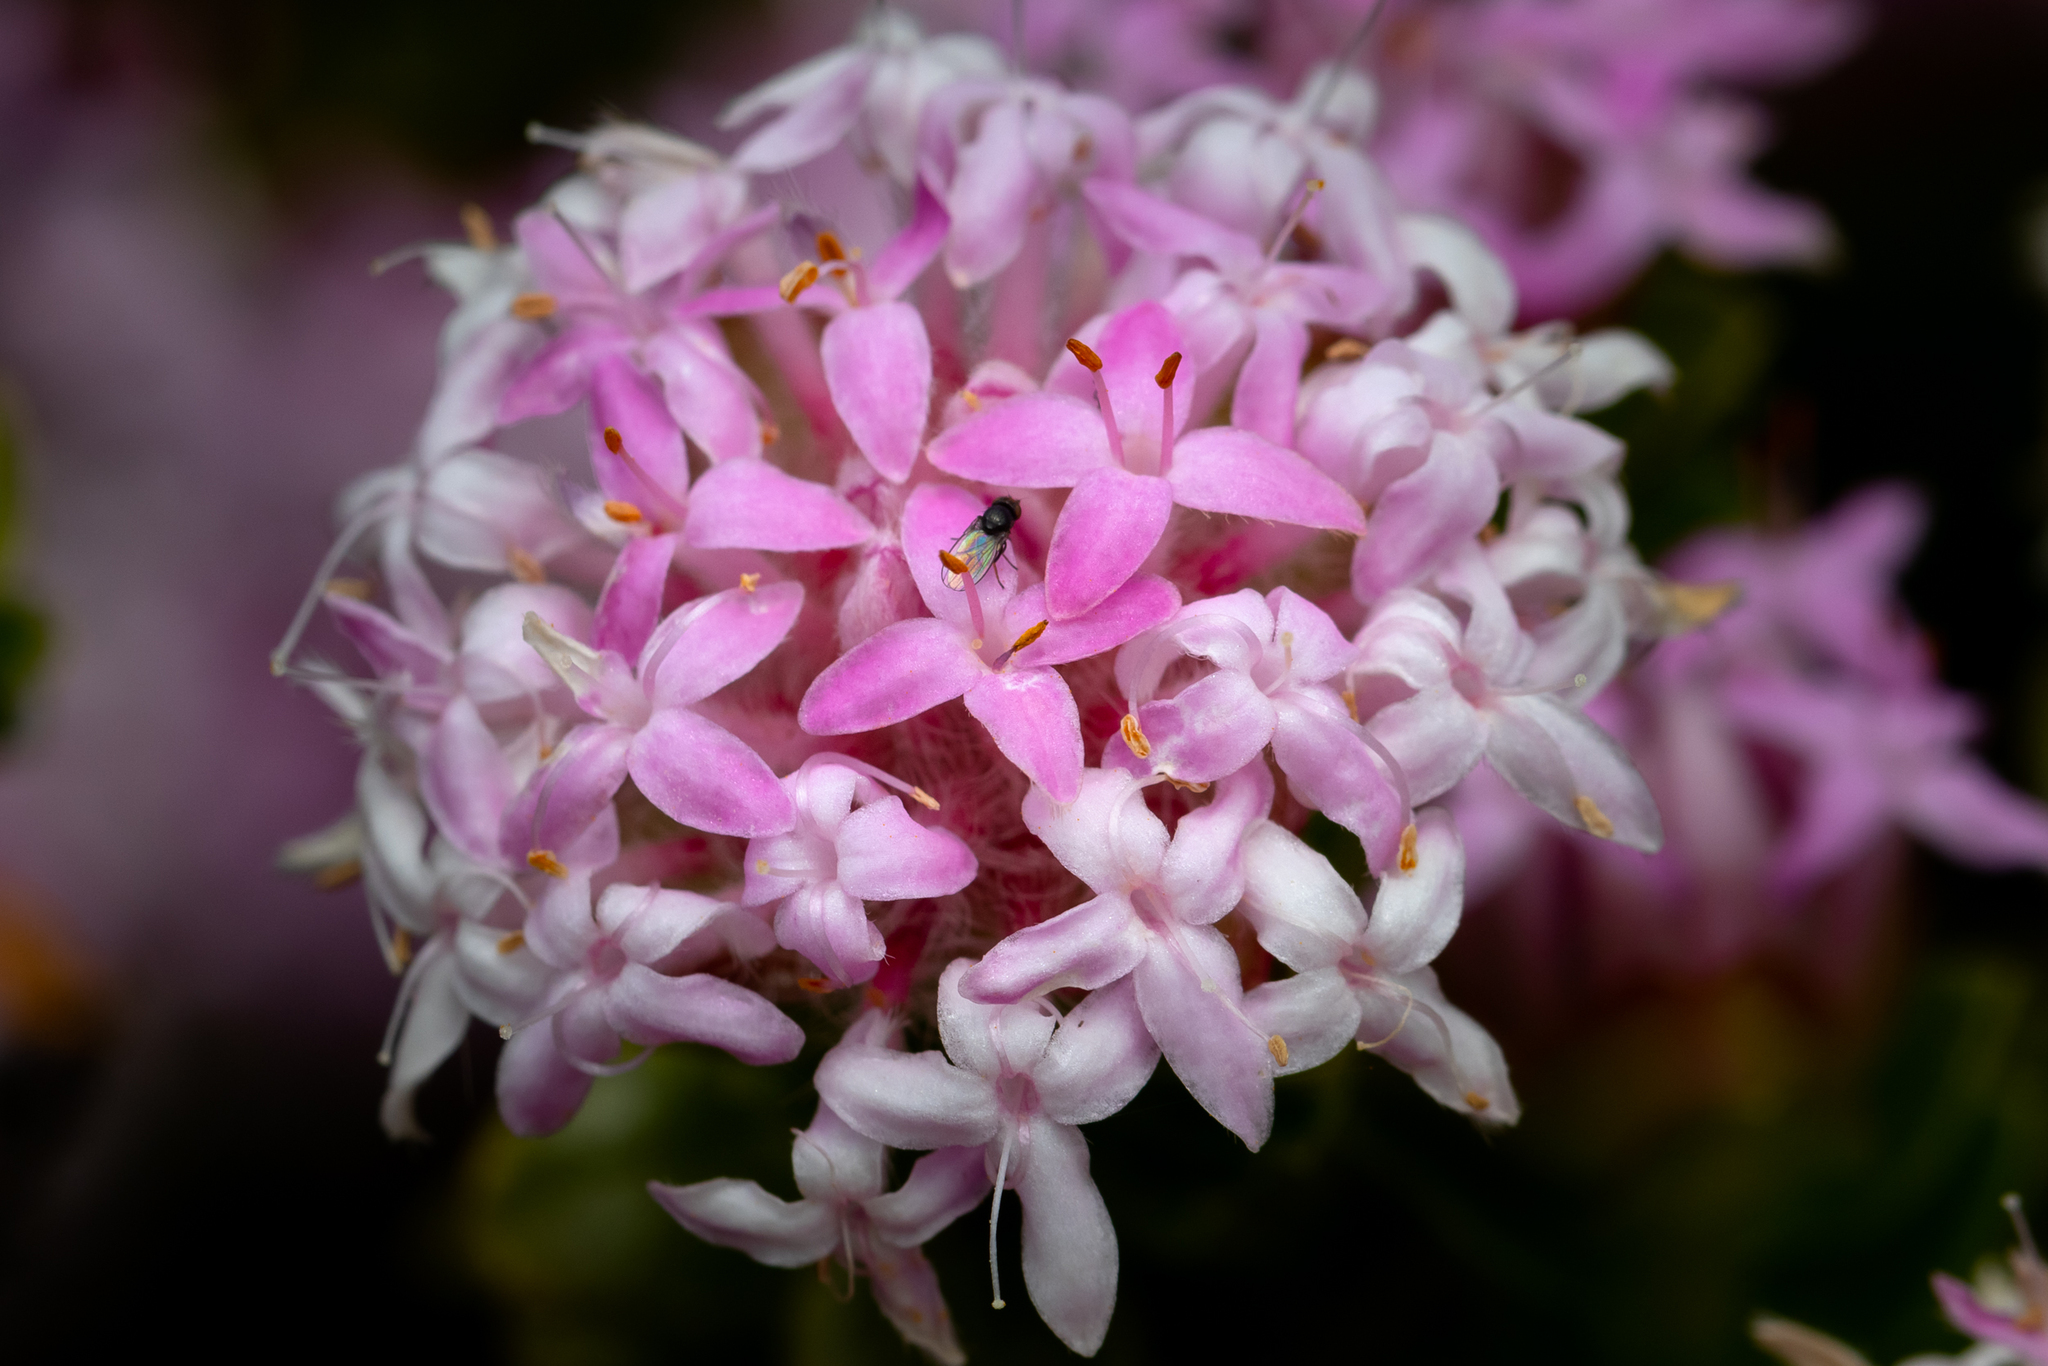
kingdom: Plantae
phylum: Tracheophyta
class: Magnoliopsida
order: Malvales
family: Thymelaeaceae
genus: Pimelea
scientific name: Pimelea ferruginea
